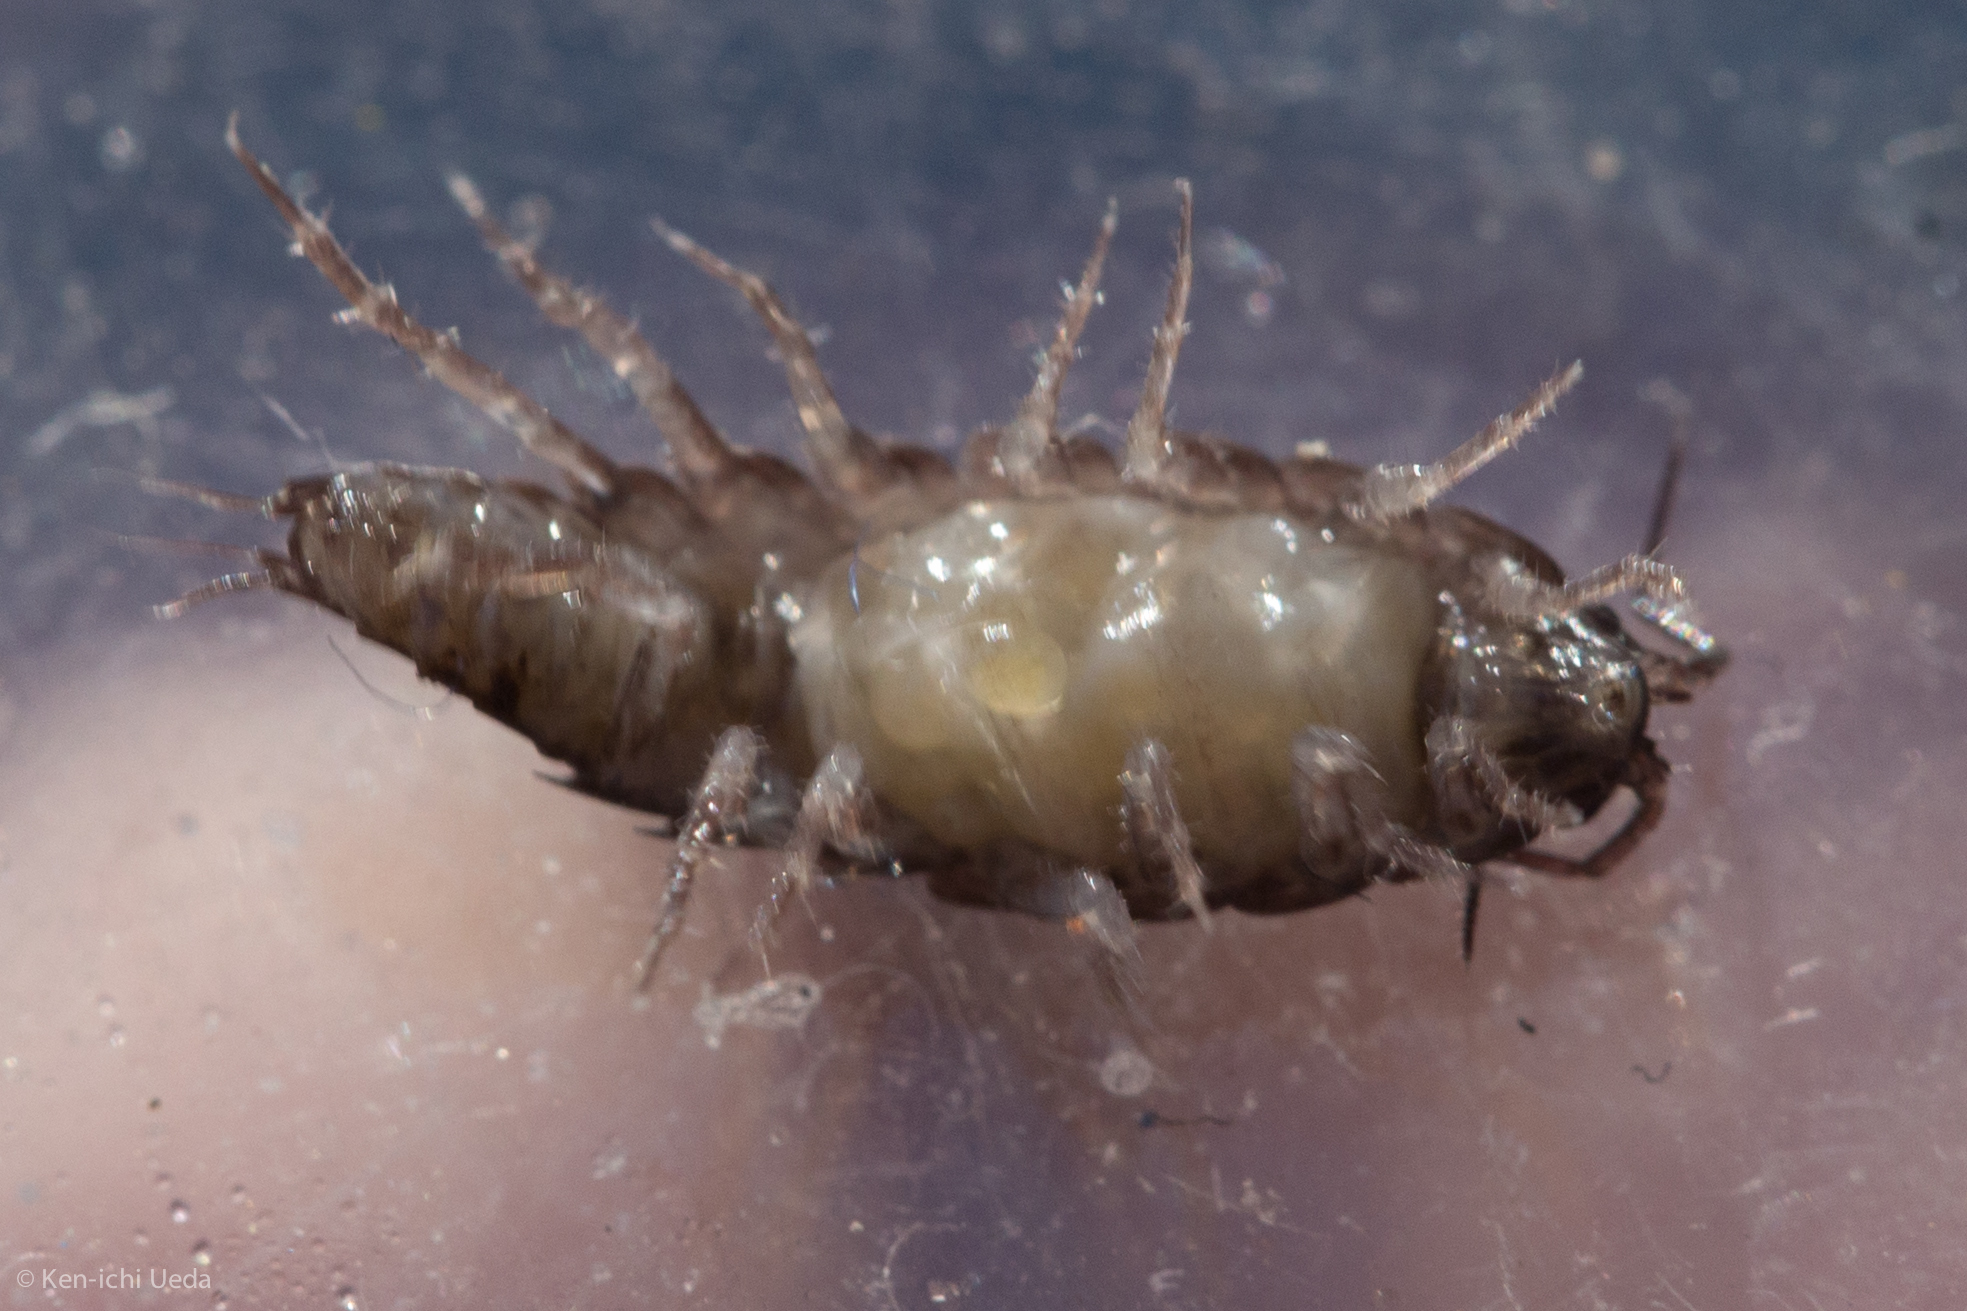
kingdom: Animalia
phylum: Arthropoda
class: Malacostraca
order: Isopoda
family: Ligiidae
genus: Ligidium
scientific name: Ligidium gracile
